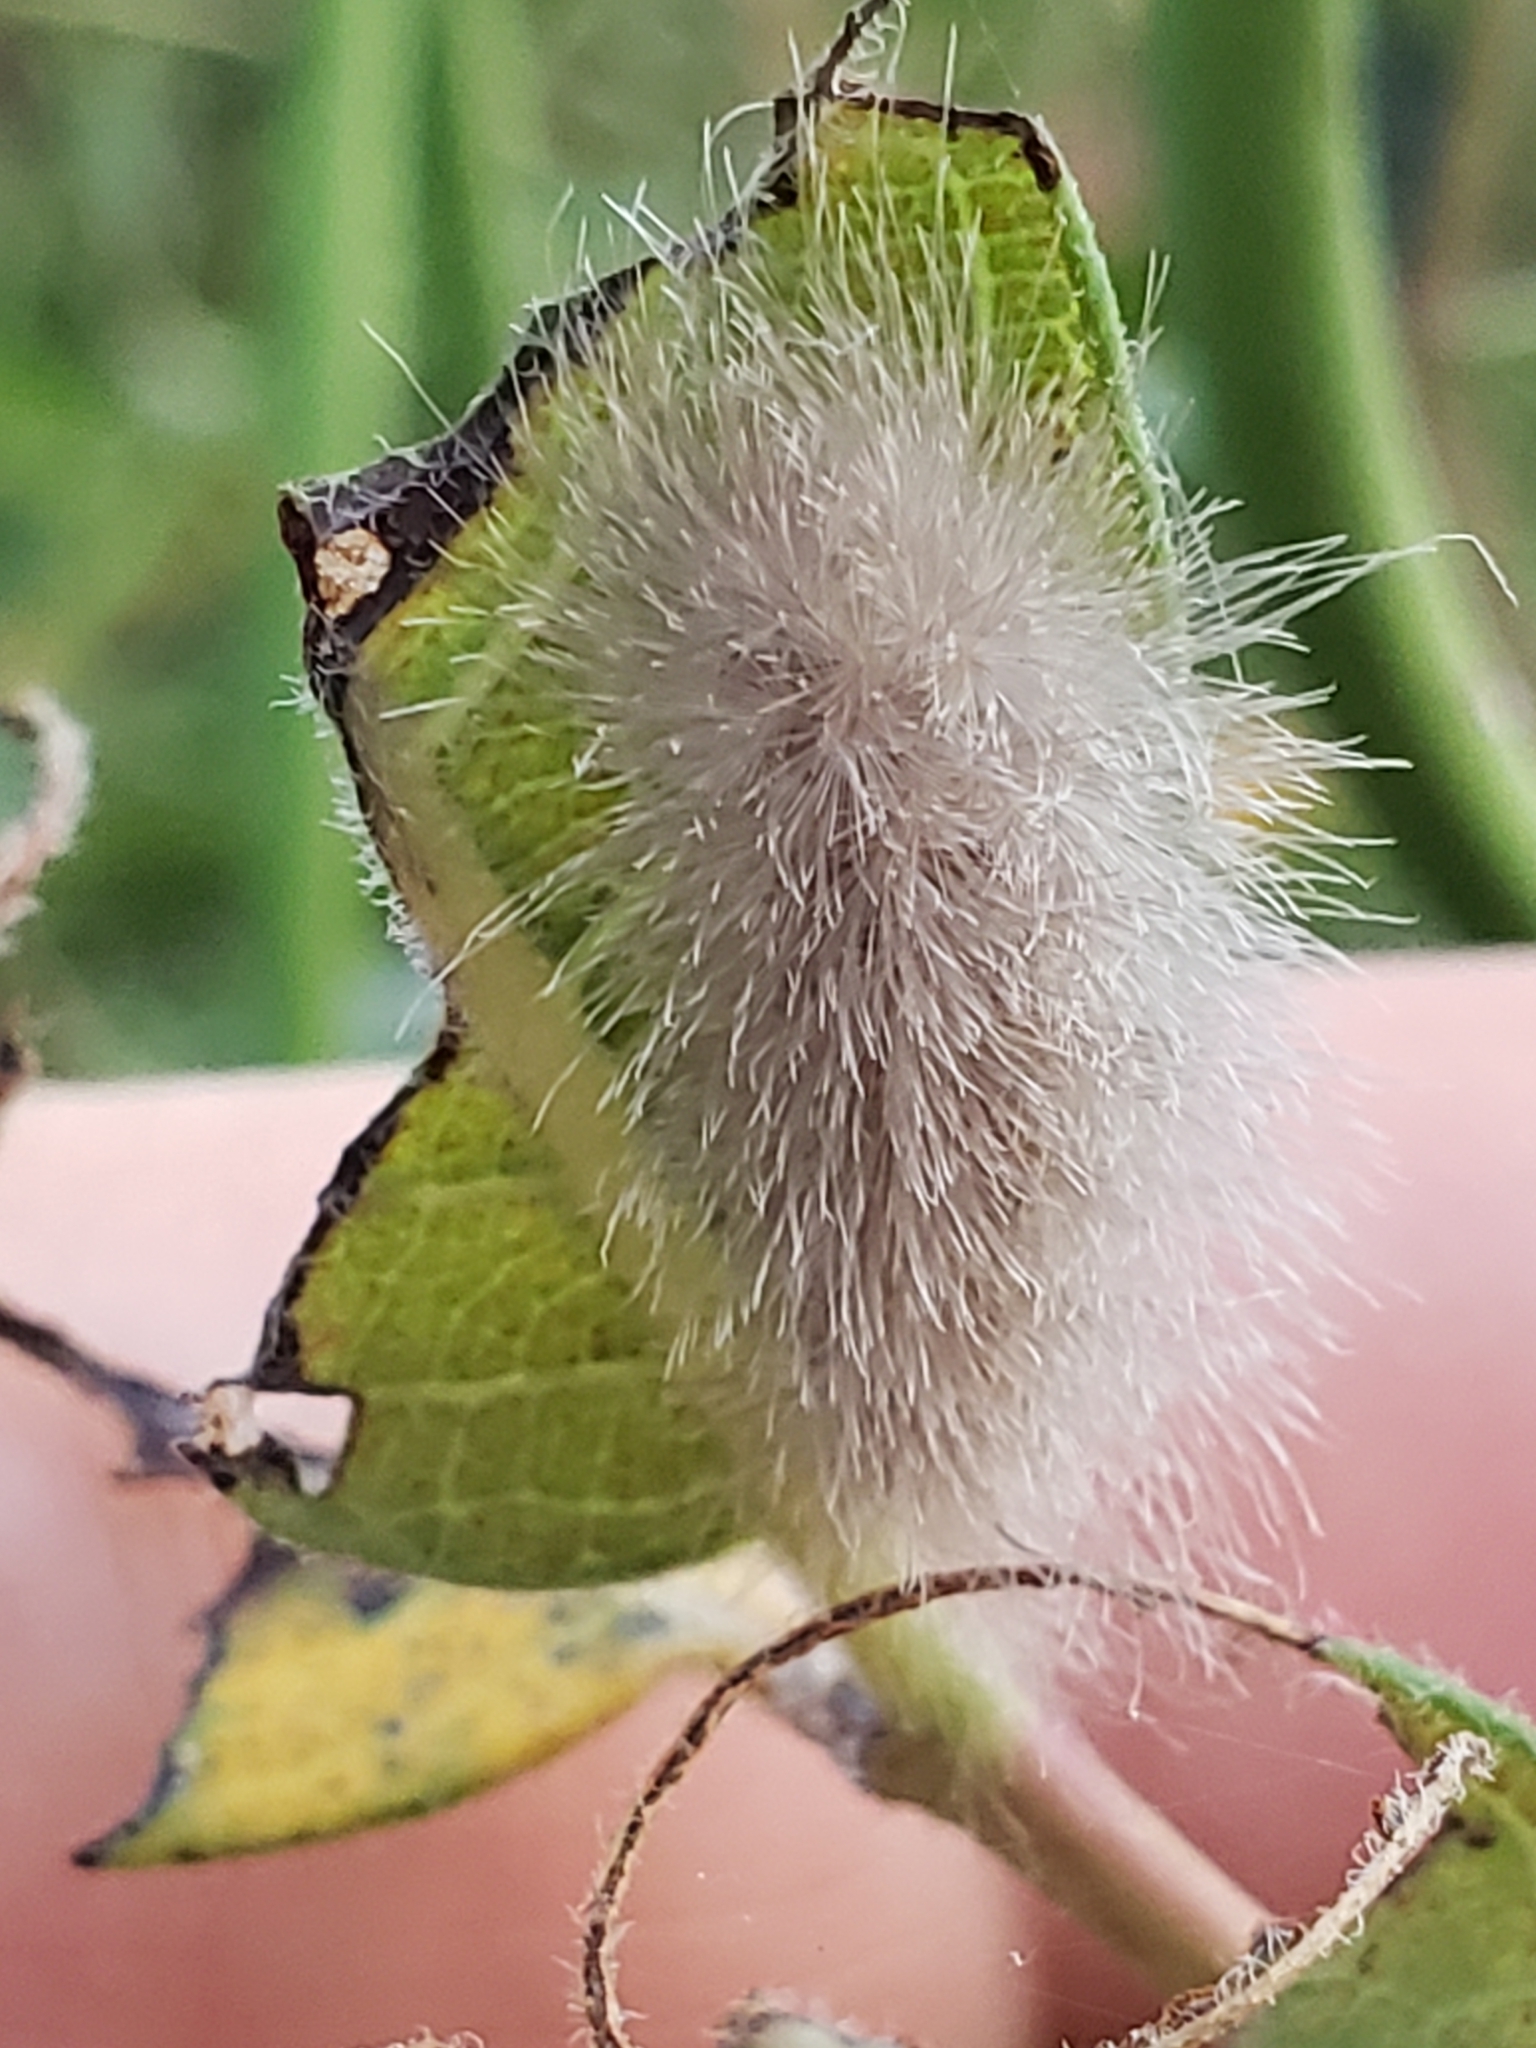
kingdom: Animalia
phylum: Arthropoda
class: Insecta
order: Lepidoptera
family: Erebidae
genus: Cycnia
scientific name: Cycnia tenera
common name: Delicate cycnia moth
